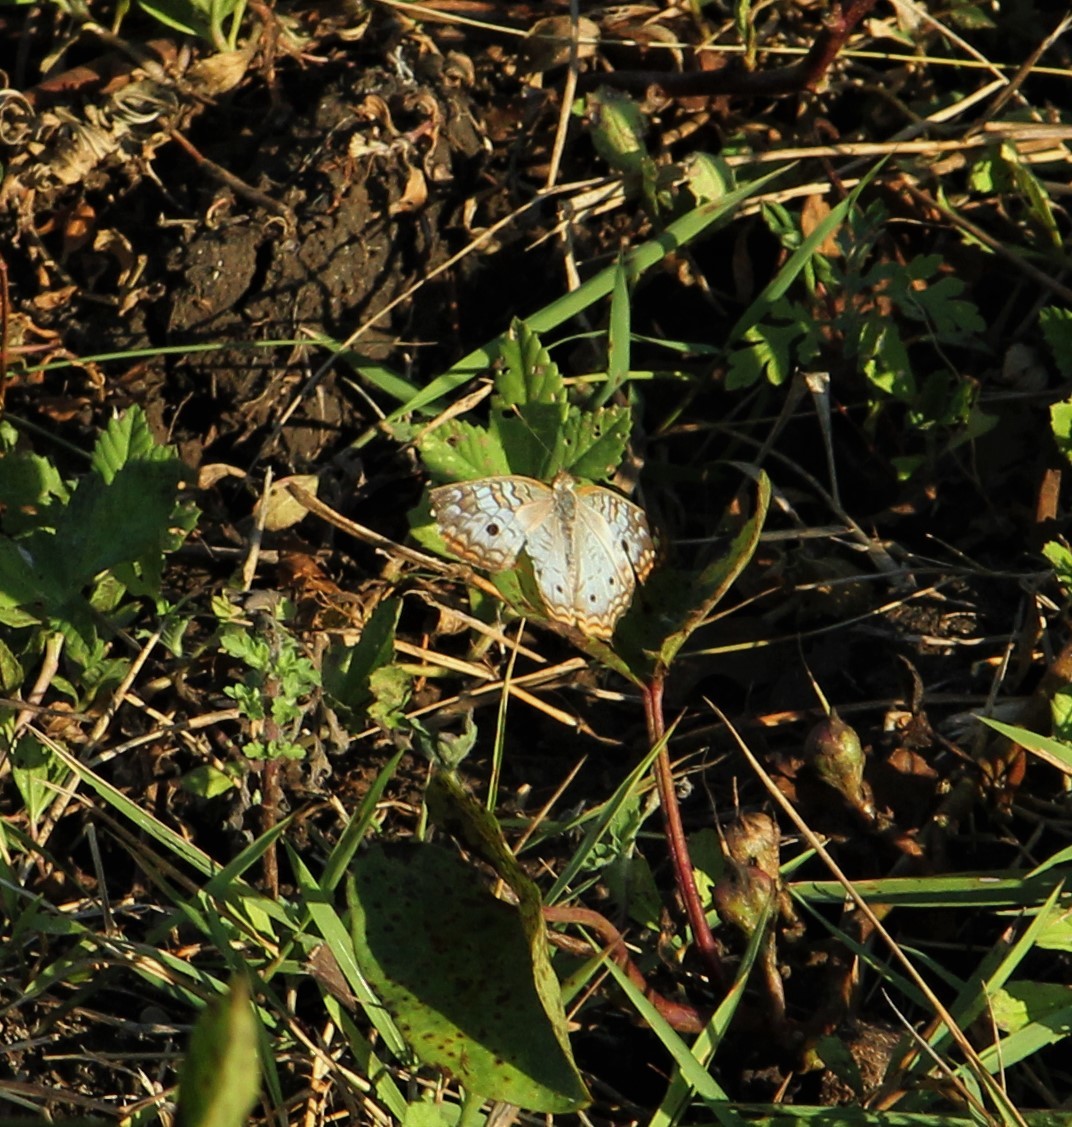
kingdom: Animalia
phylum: Arthropoda
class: Insecta
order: Lepidoptera
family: Nymphalidae
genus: Anartia
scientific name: Anartia jatrophae
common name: White peacock
